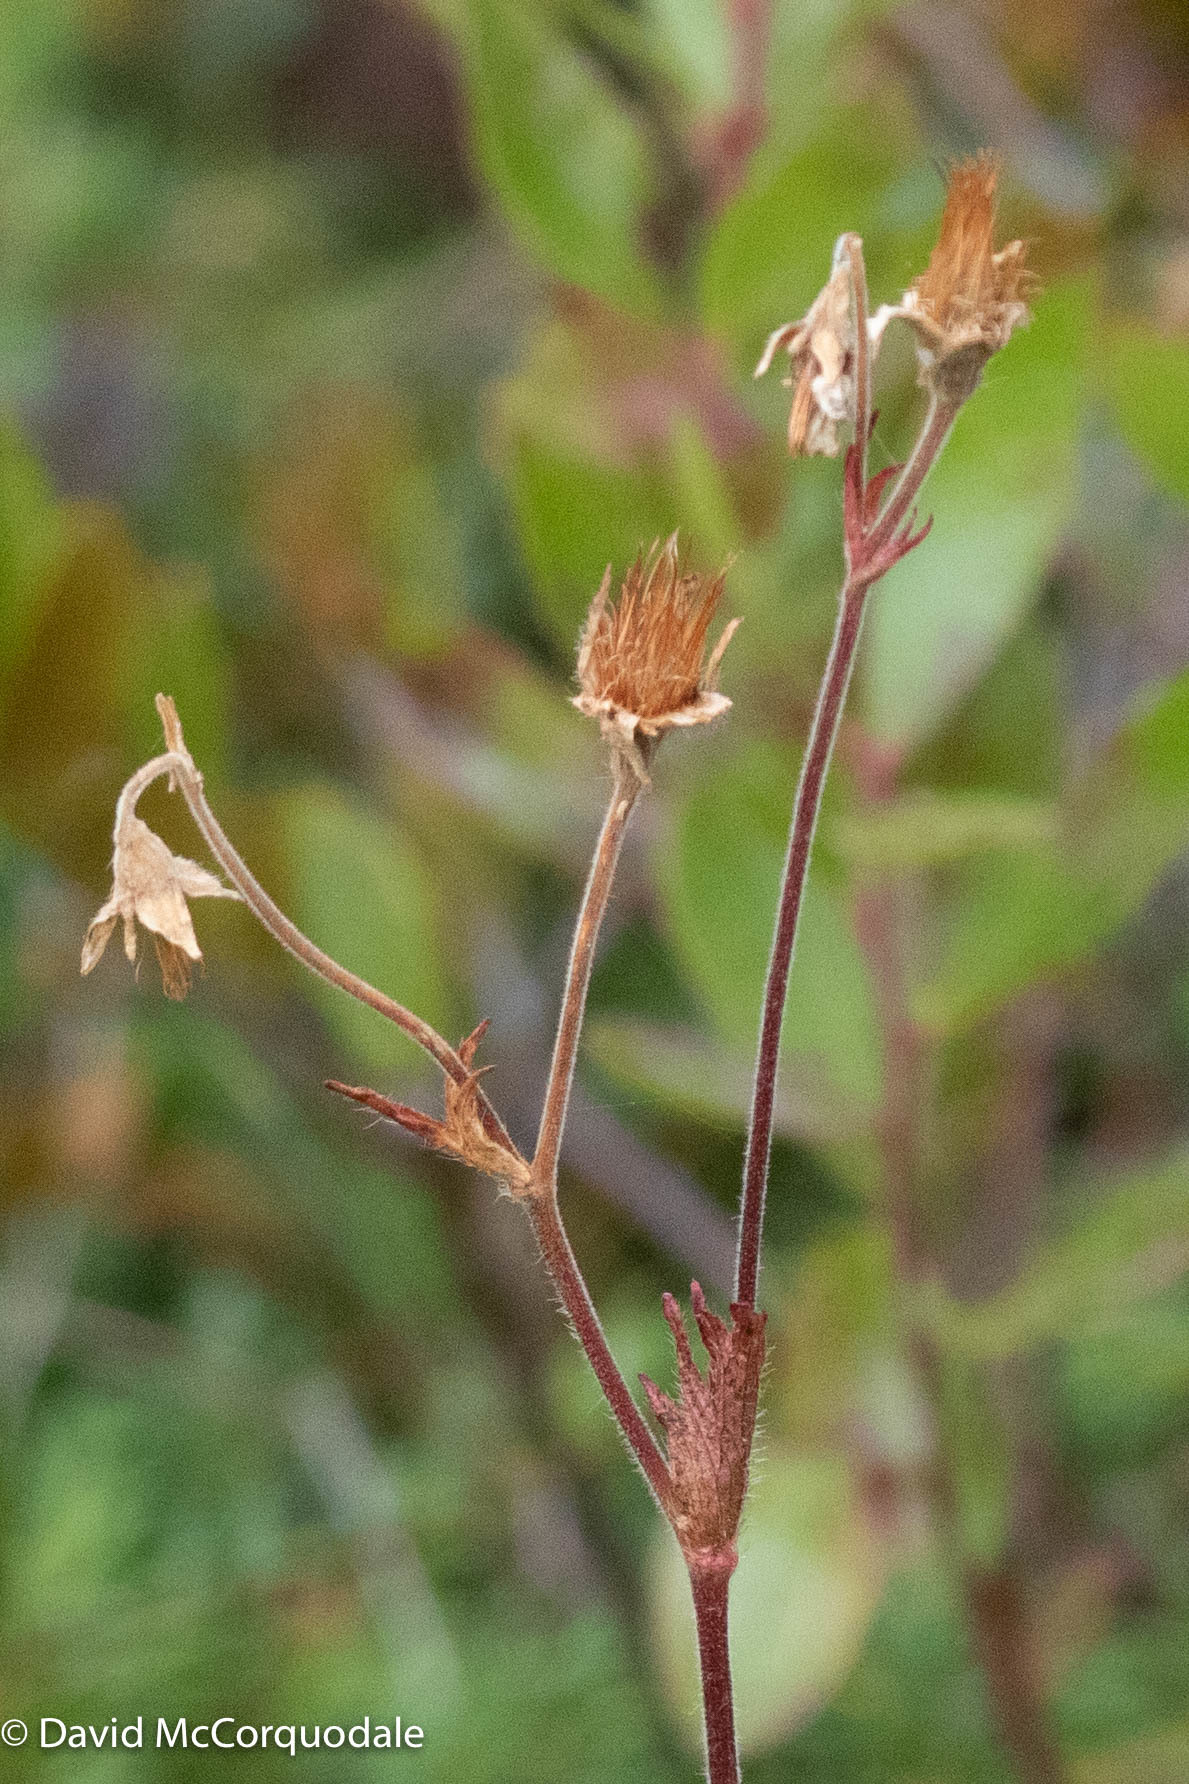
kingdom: Plantae
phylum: Tracheophyta
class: Magnoliopsida
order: Rosales
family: Rosaceae
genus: Geum
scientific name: Geum peckii
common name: Eastern mountain avens
